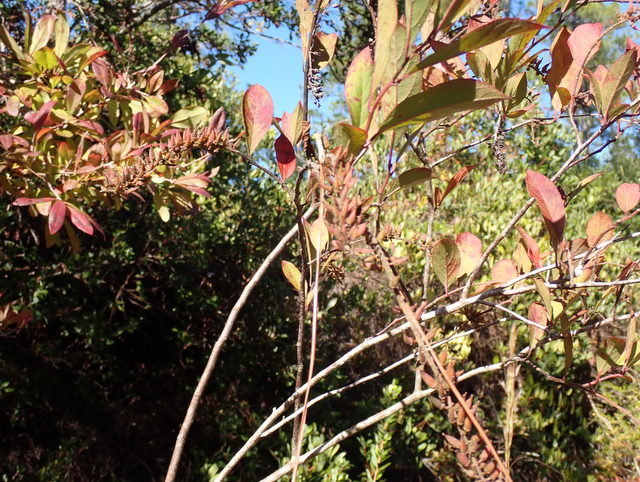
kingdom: Plantae
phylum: Tracheophyta
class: Magnoliopsida
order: Saxifragales
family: Iteaceae
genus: Itea
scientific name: Itea virginica
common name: Sweetspire
